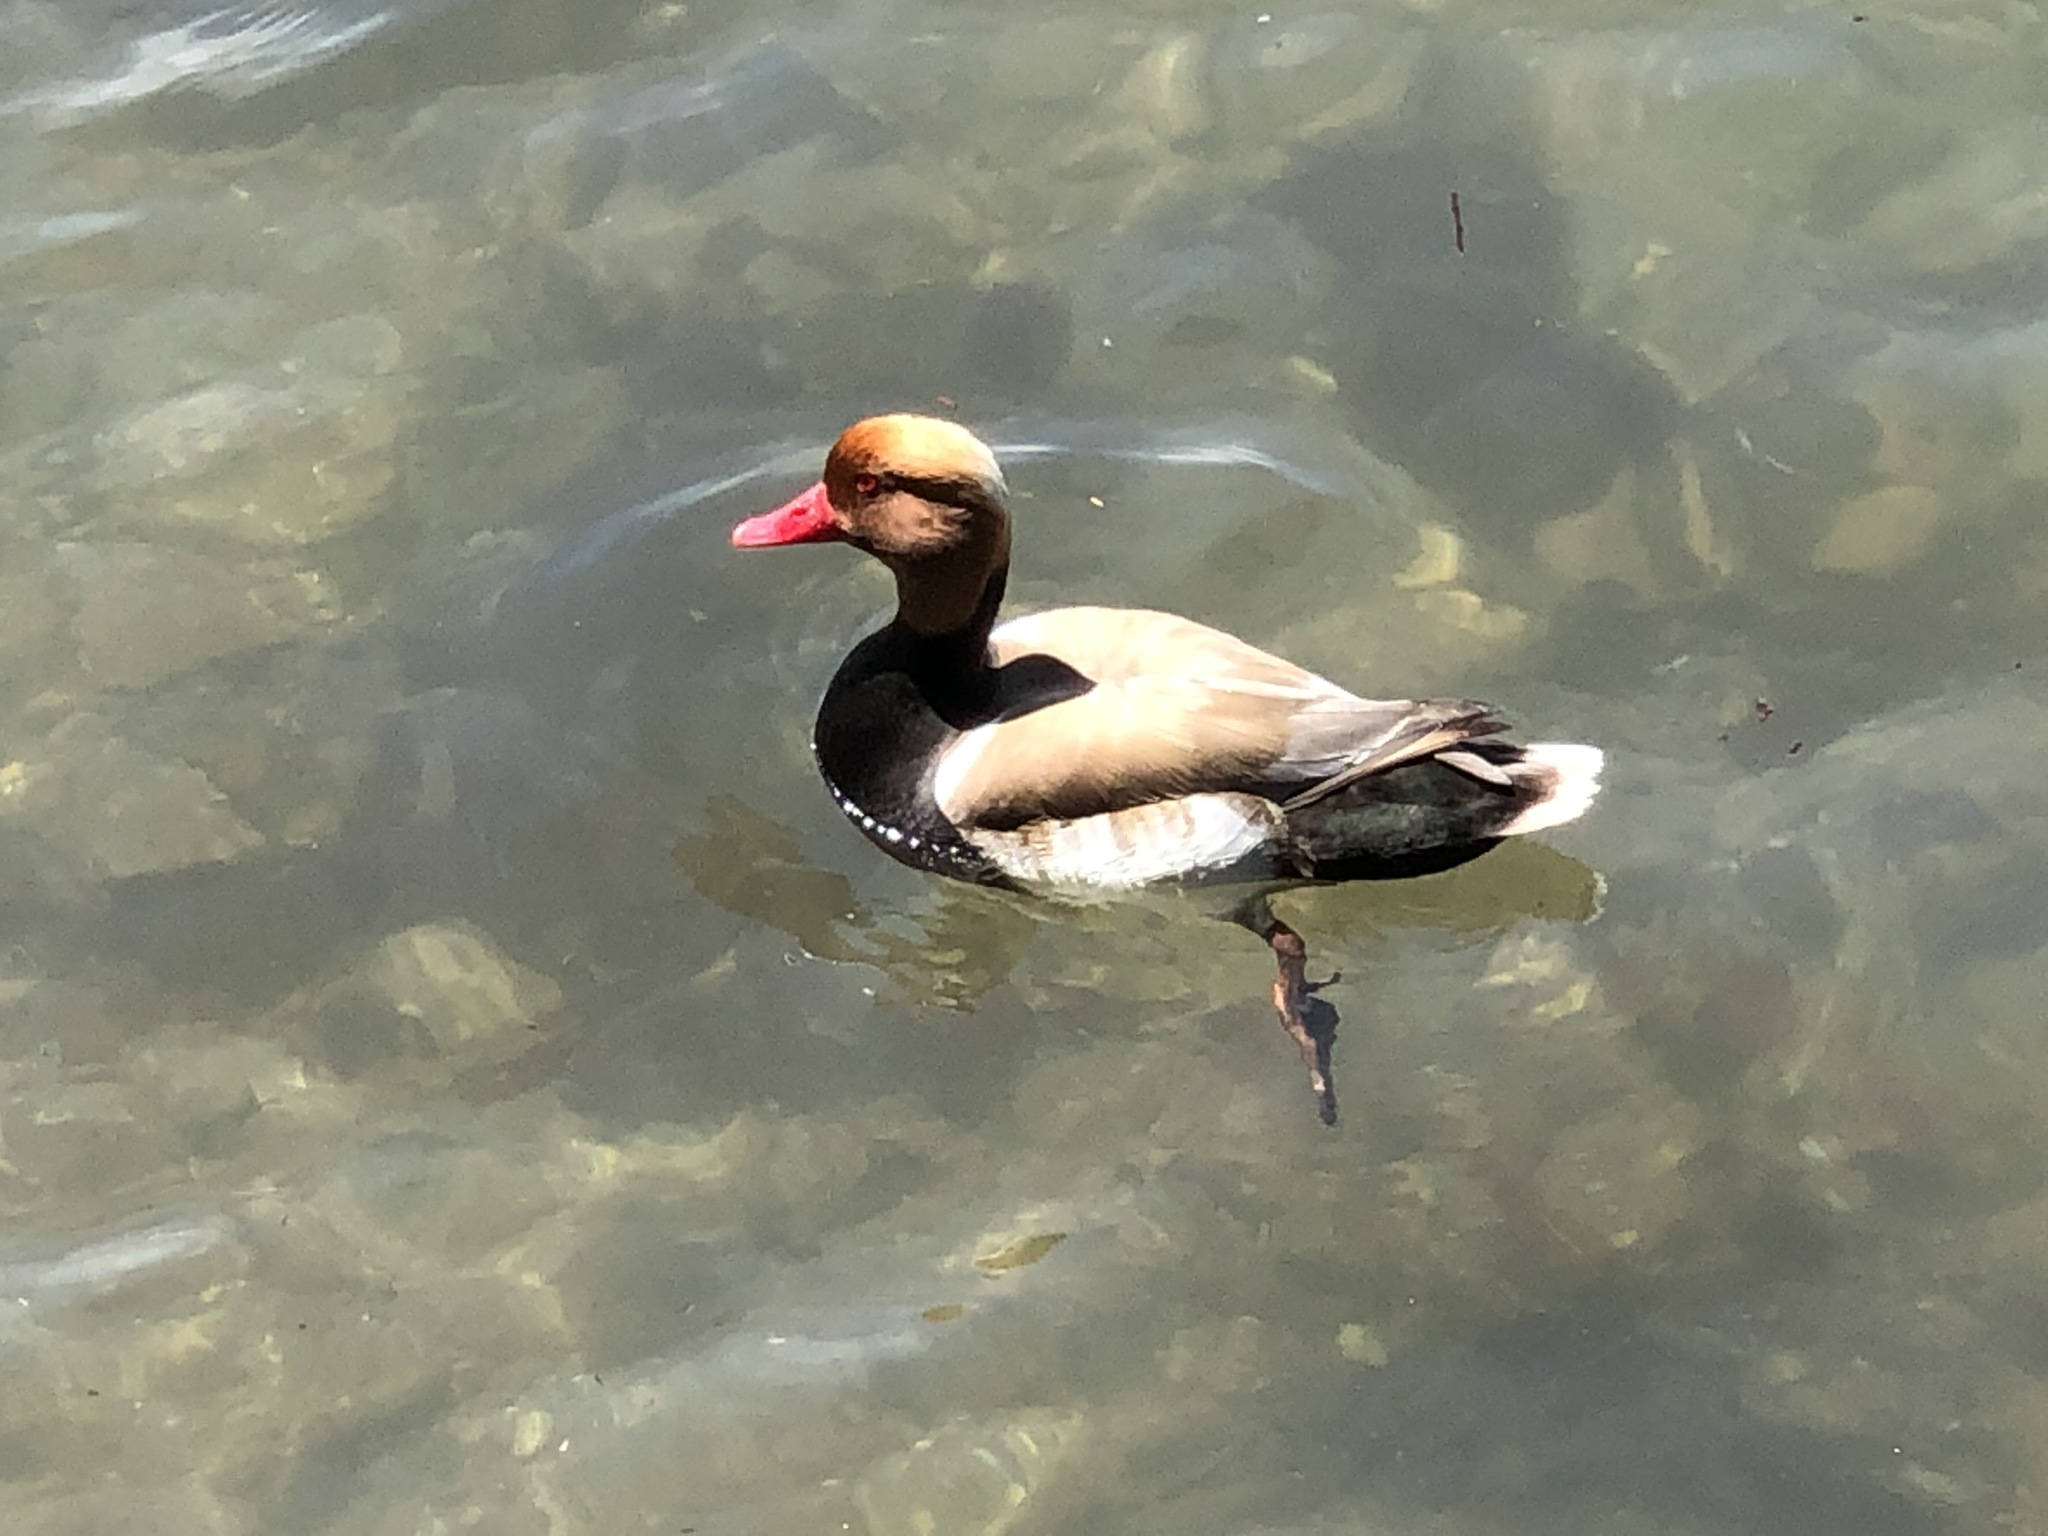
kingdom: Animalia
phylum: Chordata
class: Aves
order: Anseriformes
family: Anatidae
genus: Netta
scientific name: Netta rufina
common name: Red-crested pochard
